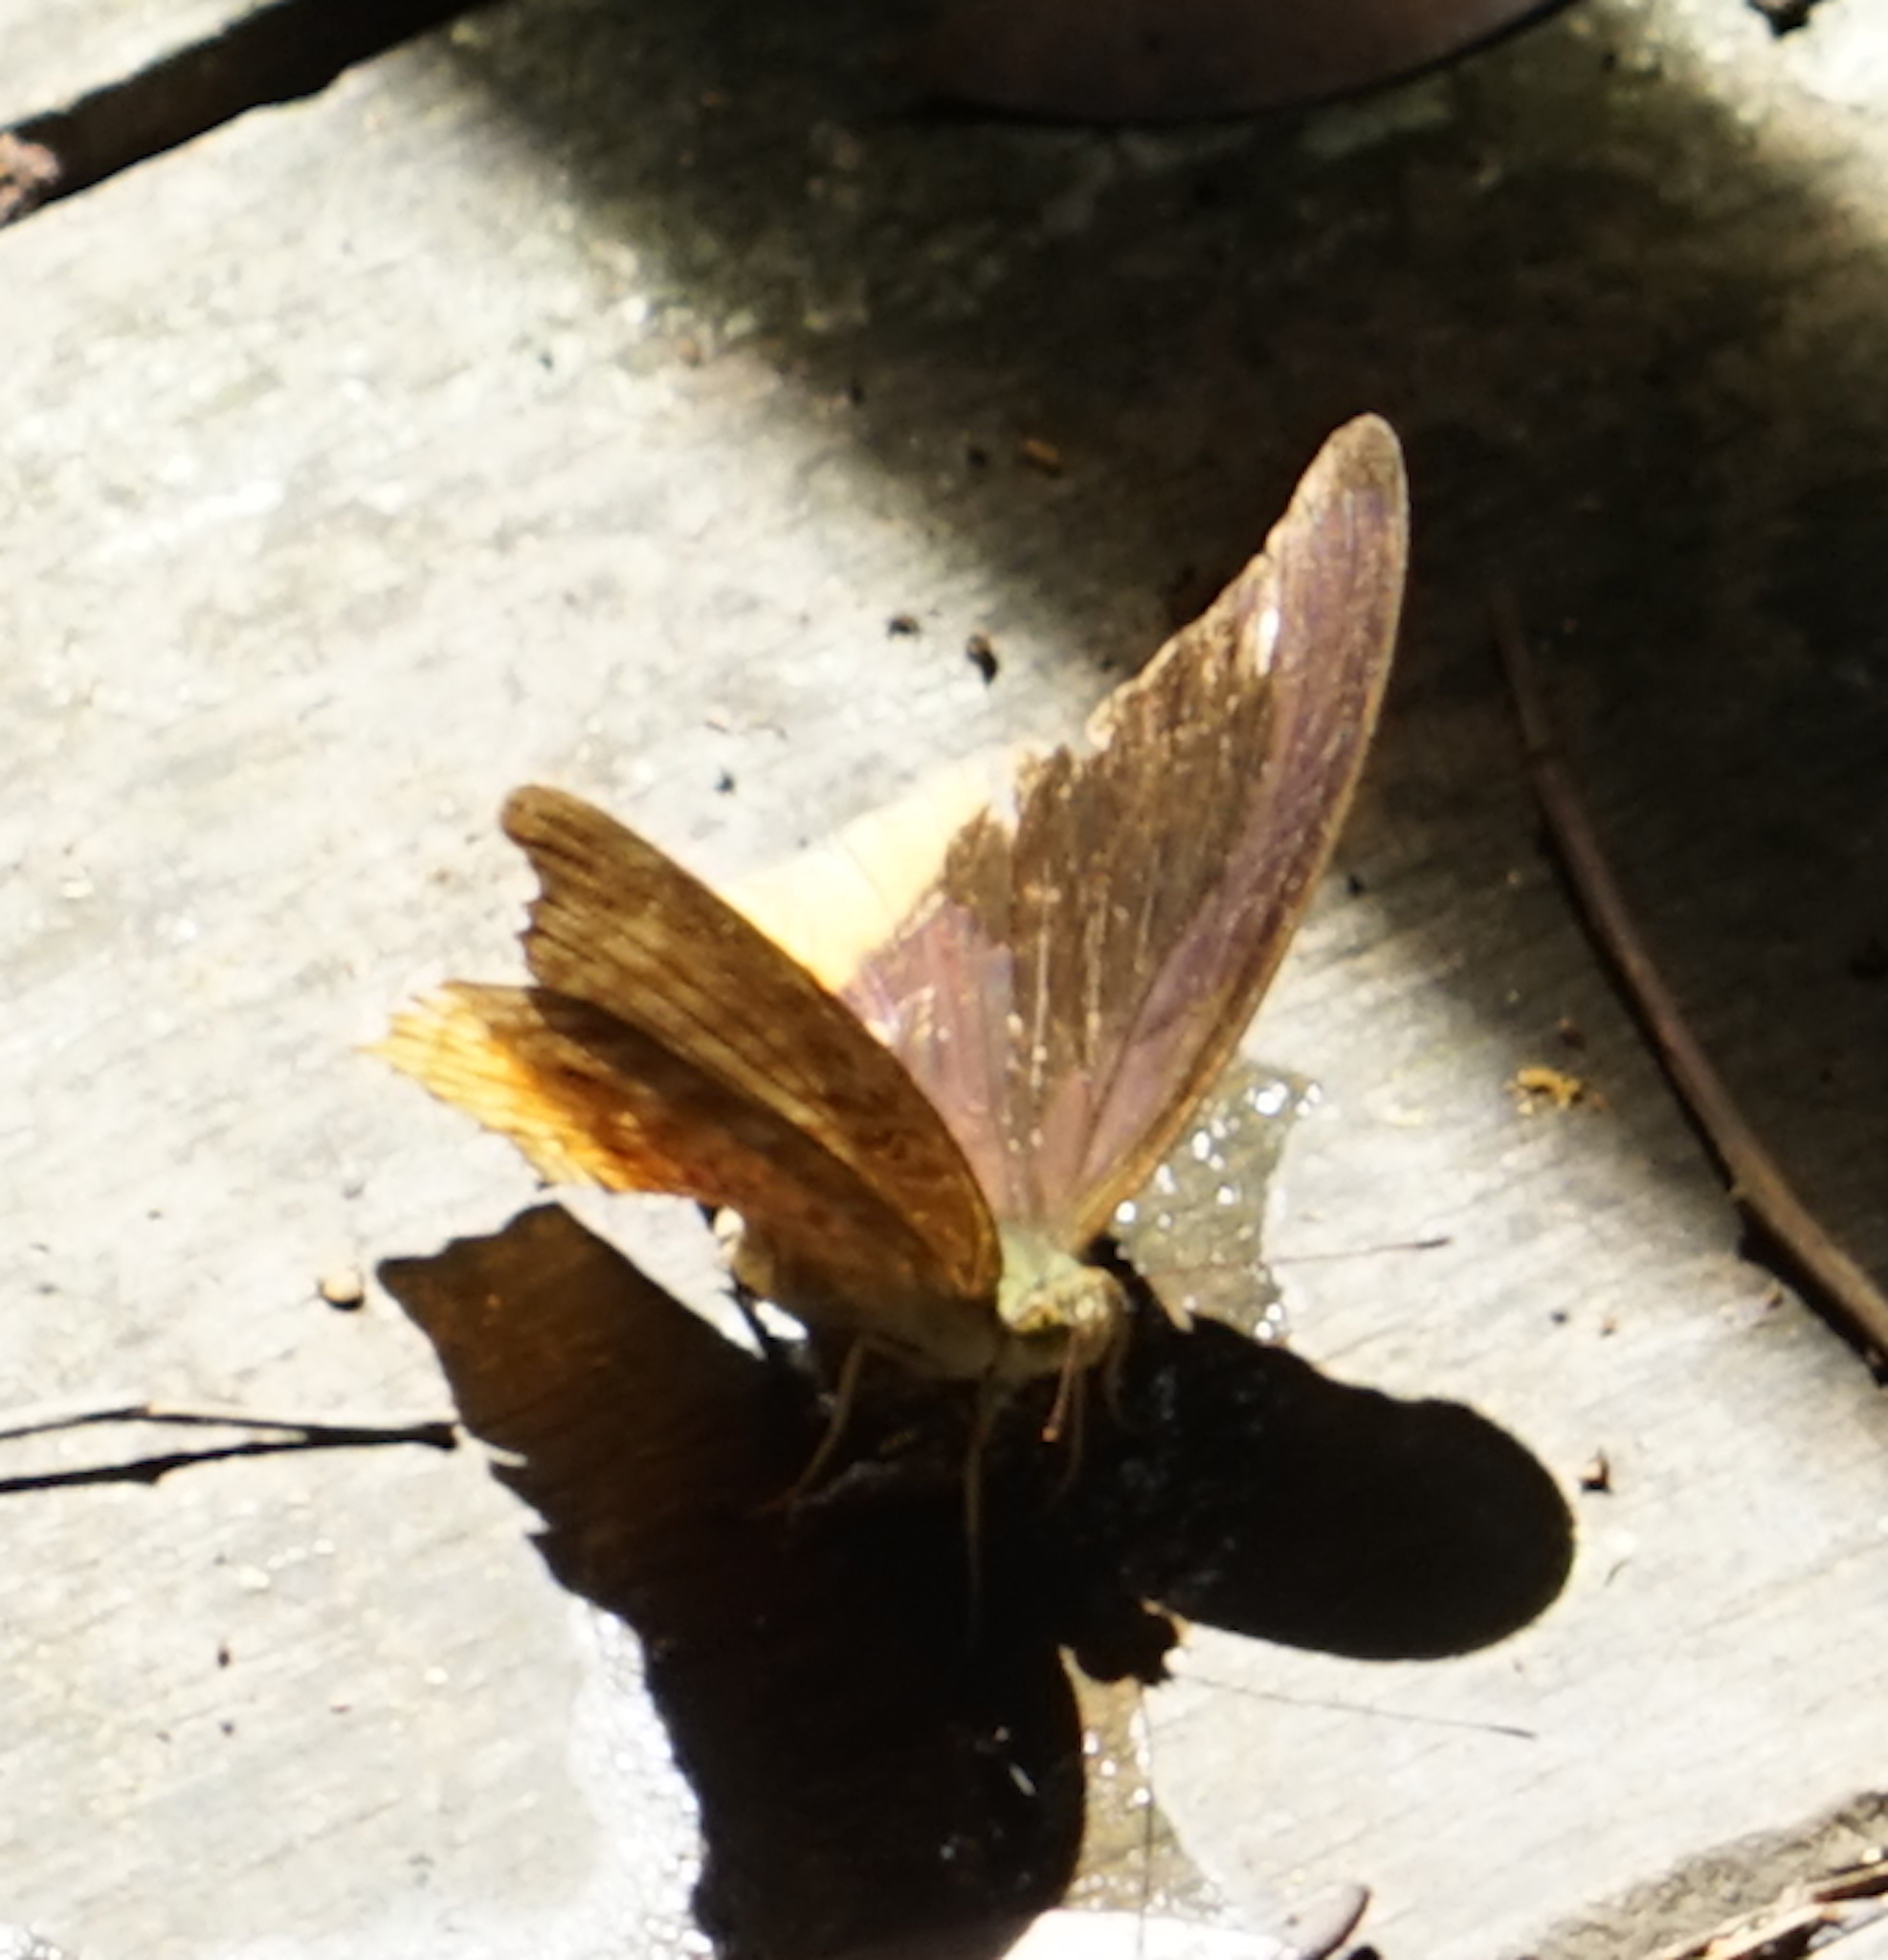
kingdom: Animalia
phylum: Arthropoda
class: Insecta
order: Lepidoptera
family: Nymphalidae
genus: Terinos
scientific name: Terinos clarissa
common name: Malayan assyrian
